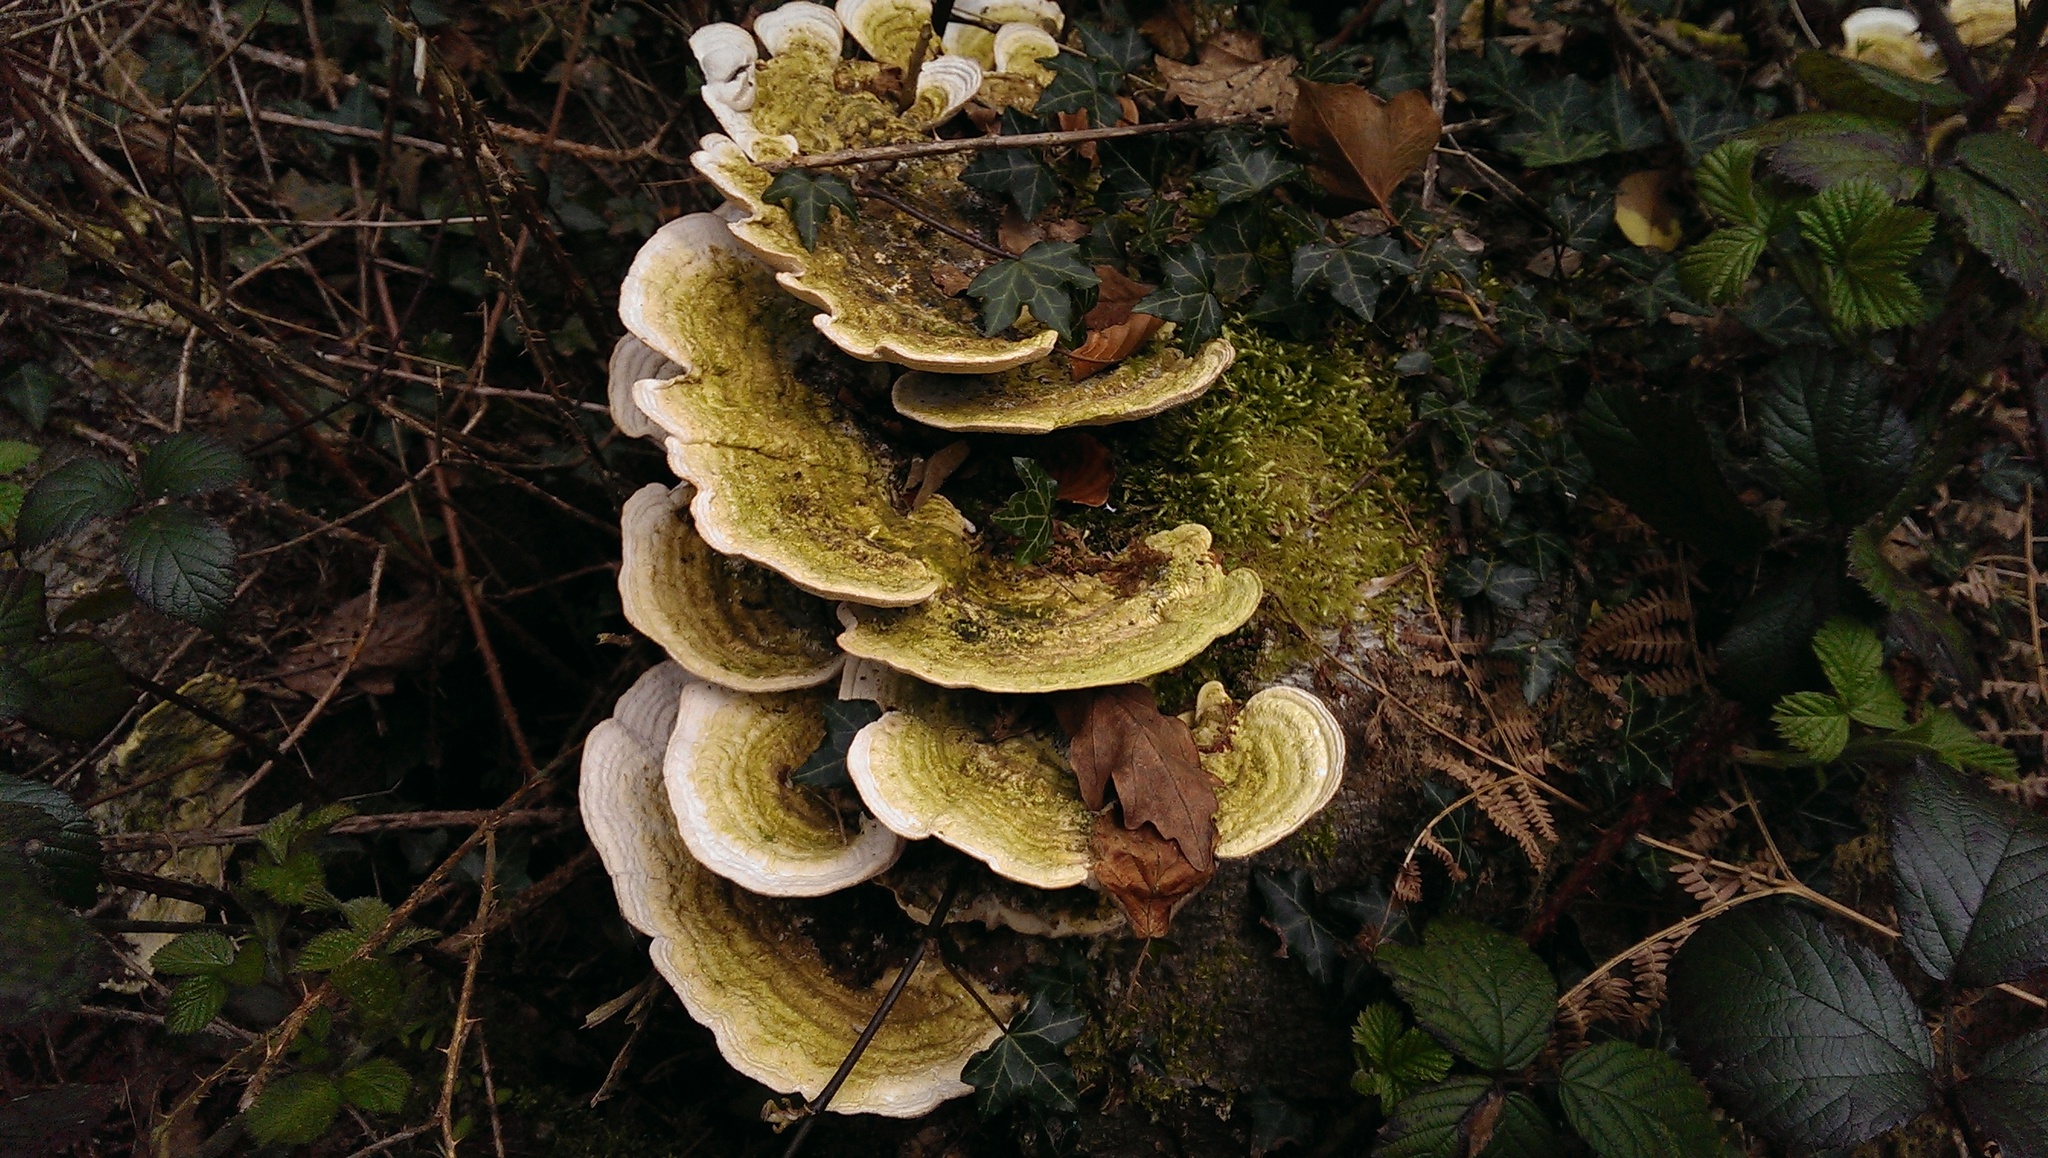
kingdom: Fungi
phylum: Basidiomycota
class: Agaricomycetes
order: Polyporales
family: Polyporaceae
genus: Trametes
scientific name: Trametes gibbosa
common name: Lumpy bracket
